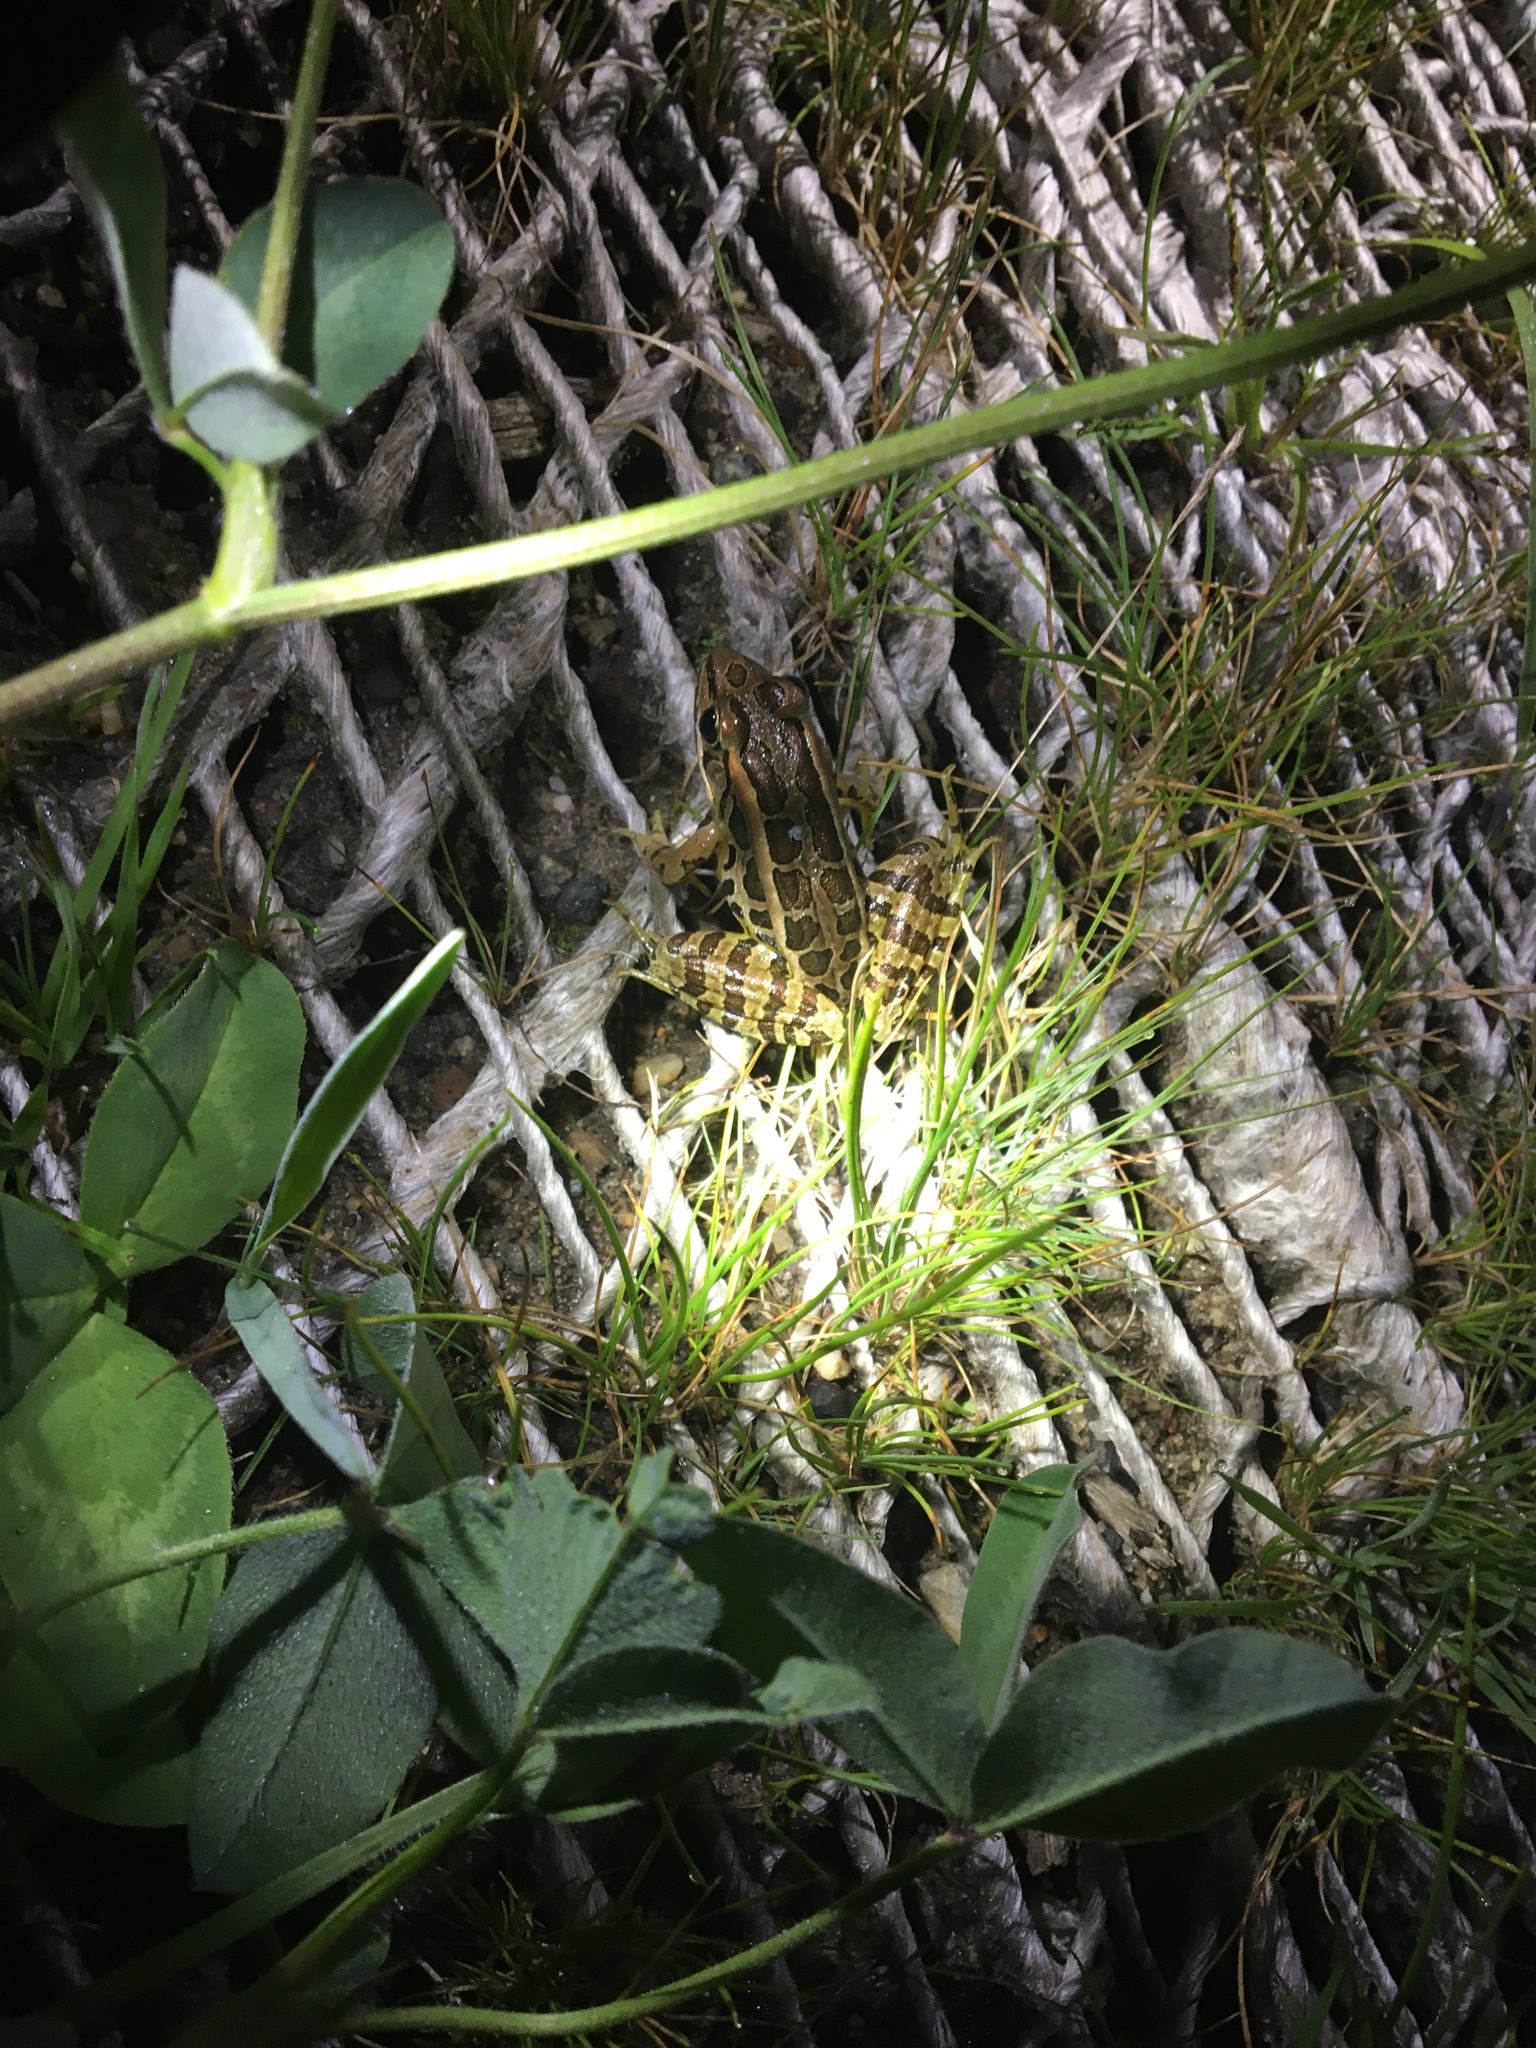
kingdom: Animalia
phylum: Chordata
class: Amphibia
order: Anura
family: Ranidae
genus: Lithobates
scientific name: Lithobates palustris
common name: Pickerel frog
